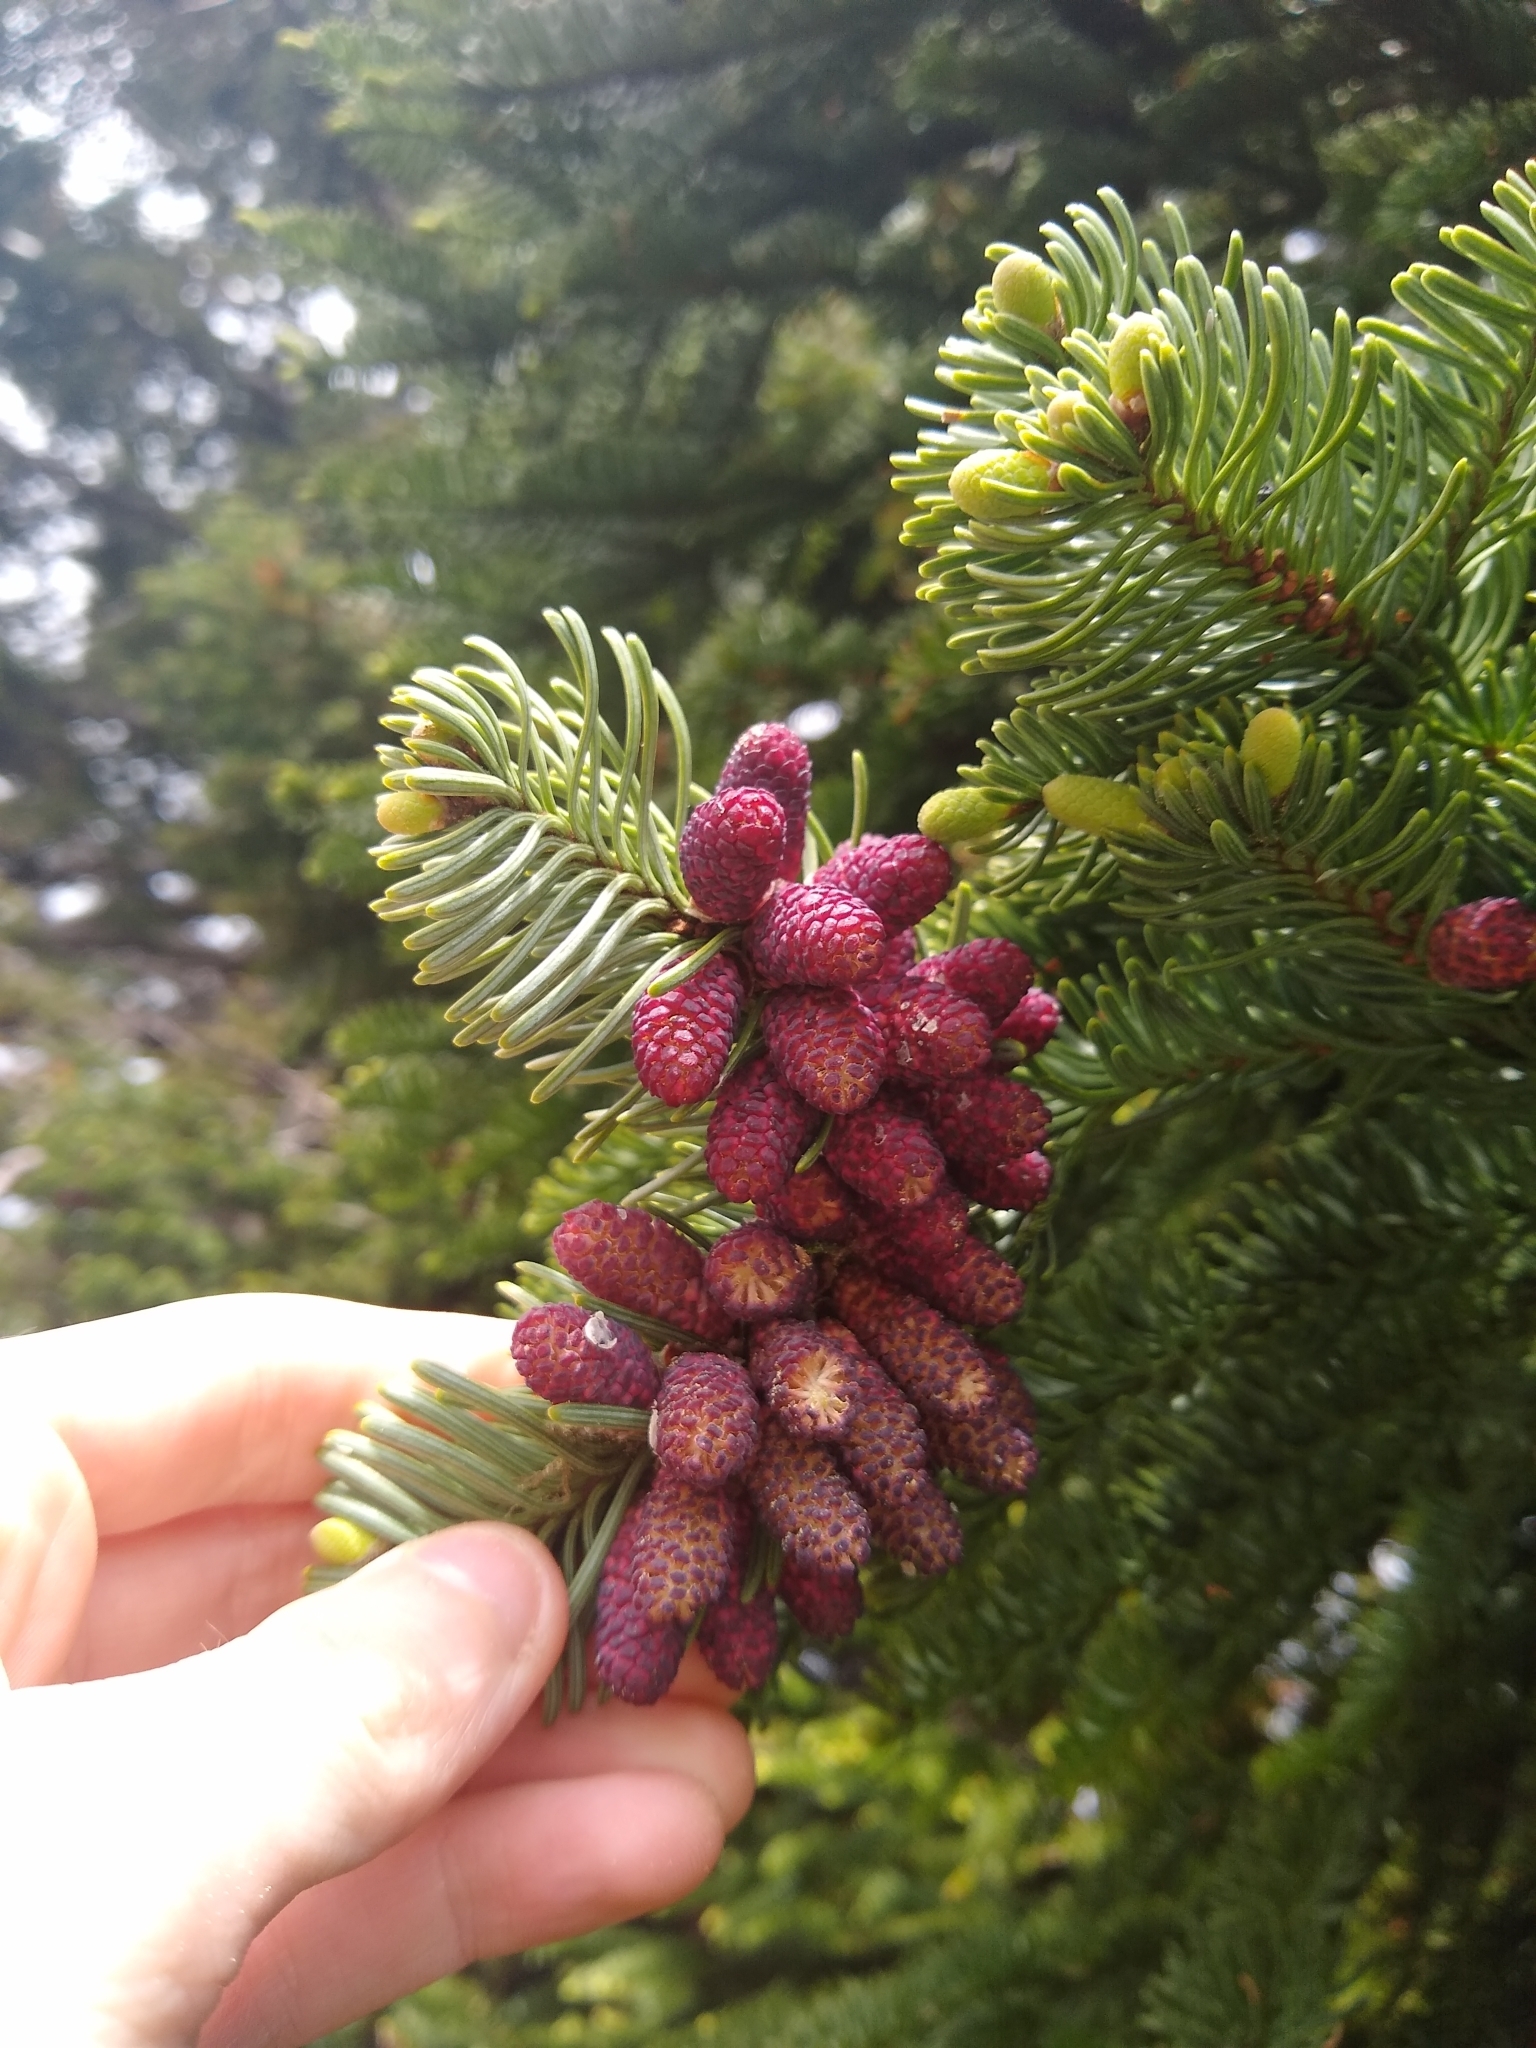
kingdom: Plantae
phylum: Tracheophyta
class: Pinopsida
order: Pinales
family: Pinaceae
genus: Abies
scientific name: Abies procera
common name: Noble fir
